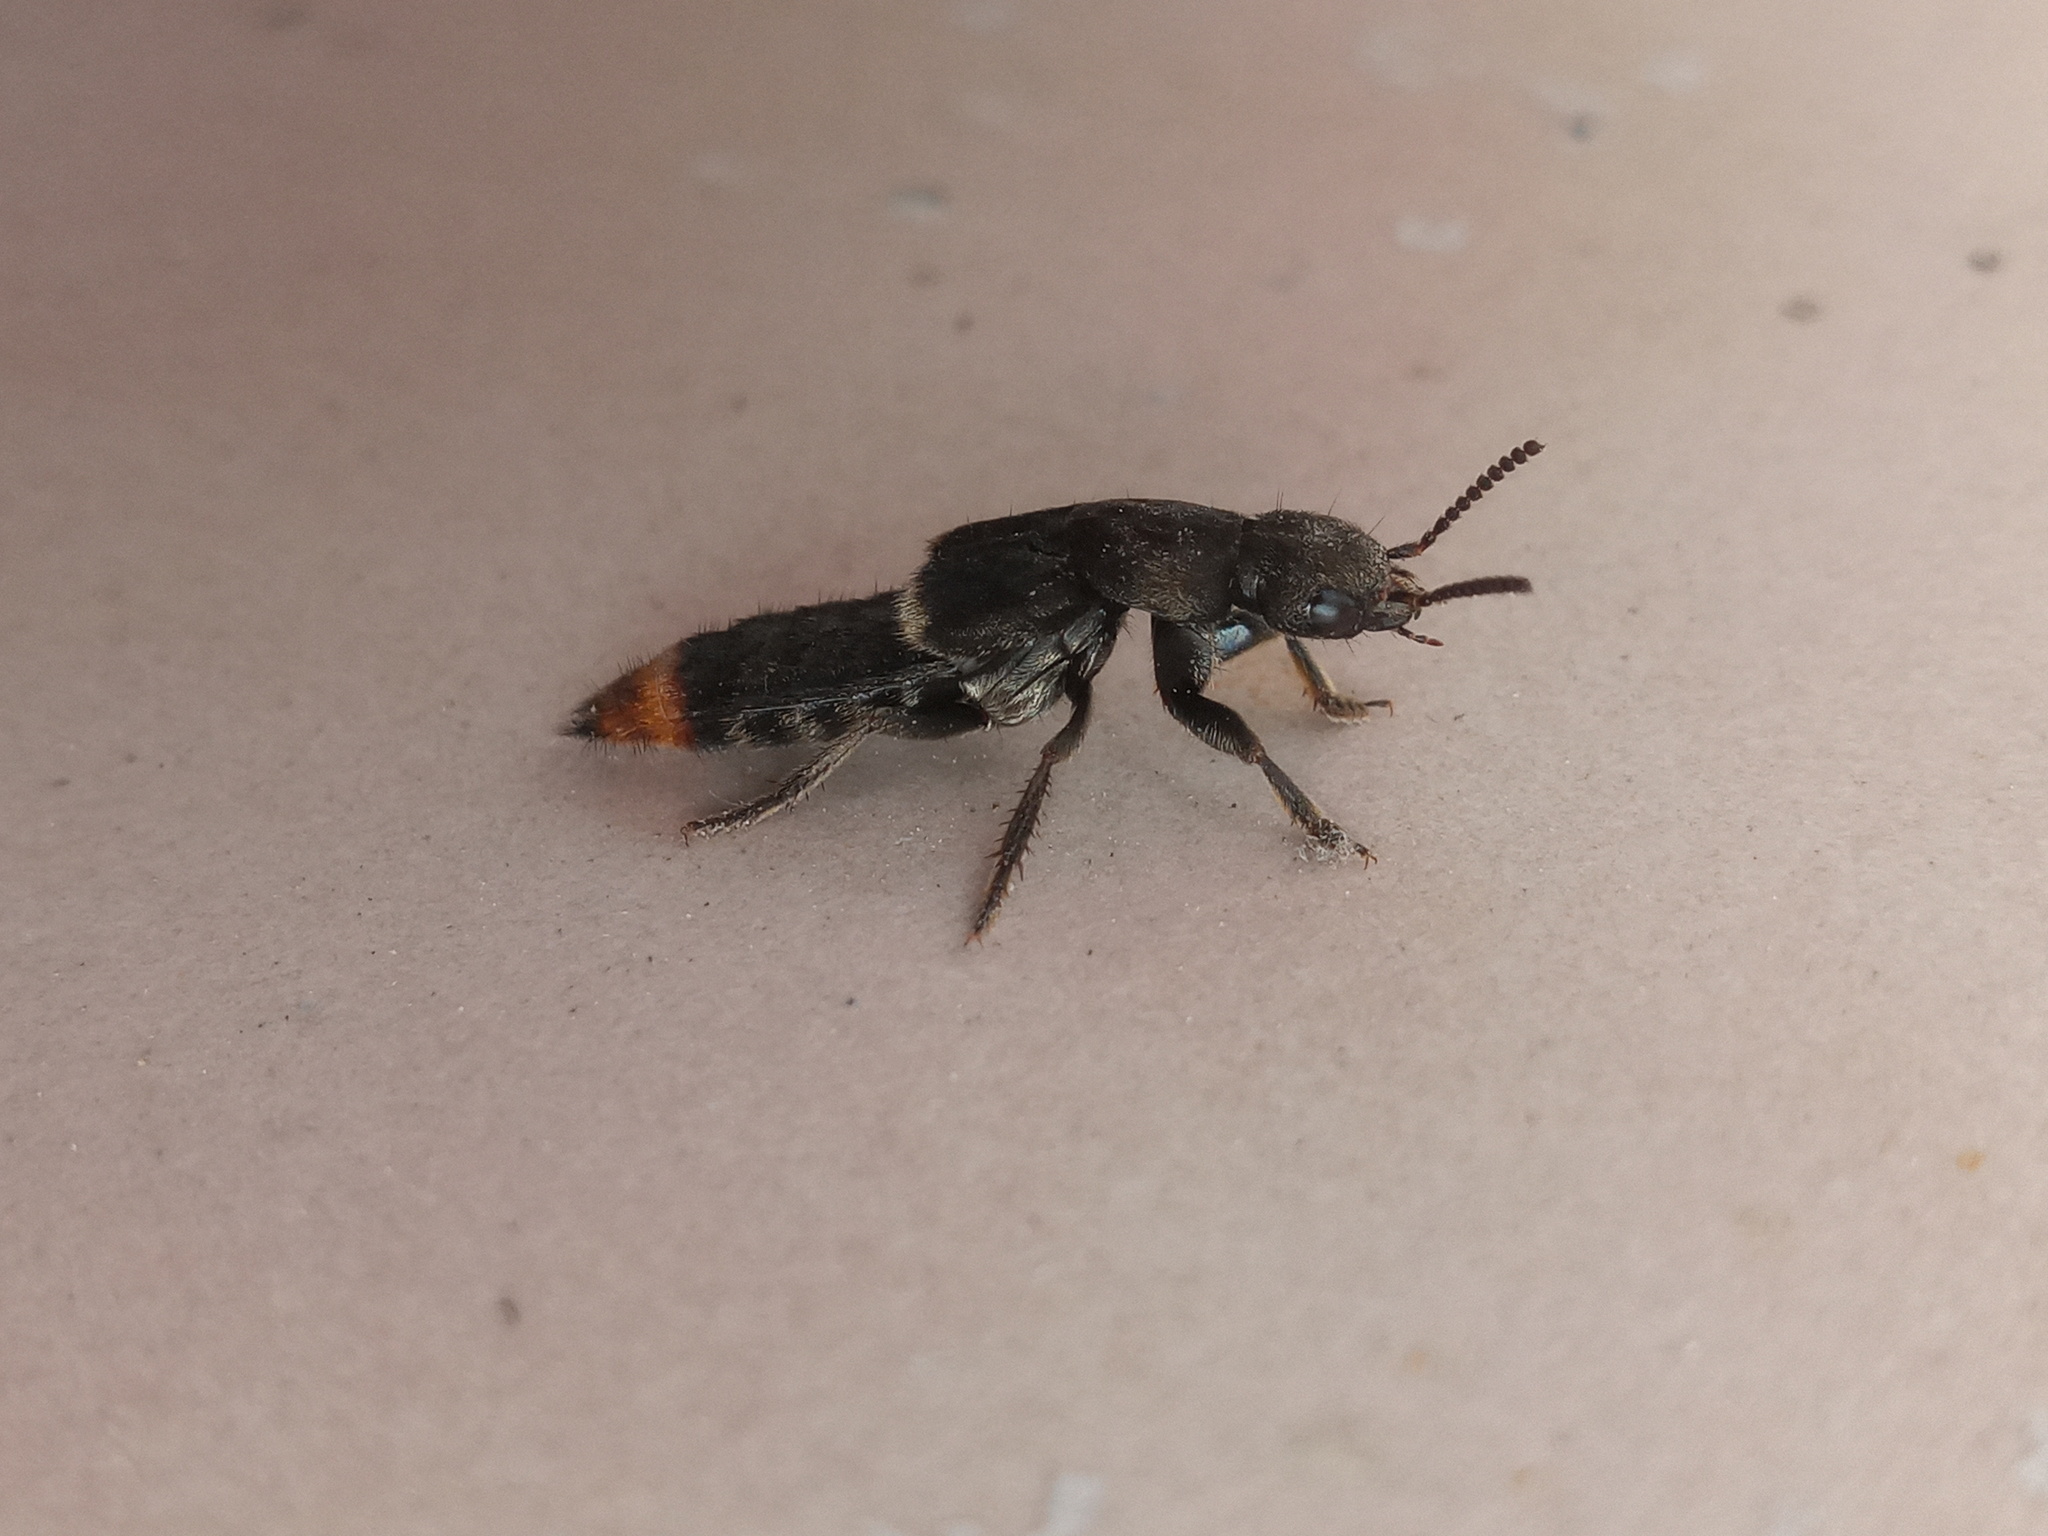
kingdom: Animalia
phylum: Arthropoda
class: Insecta
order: Coleoptera
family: Staphylinidae
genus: Platydracus
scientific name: Platydracus incognitus
